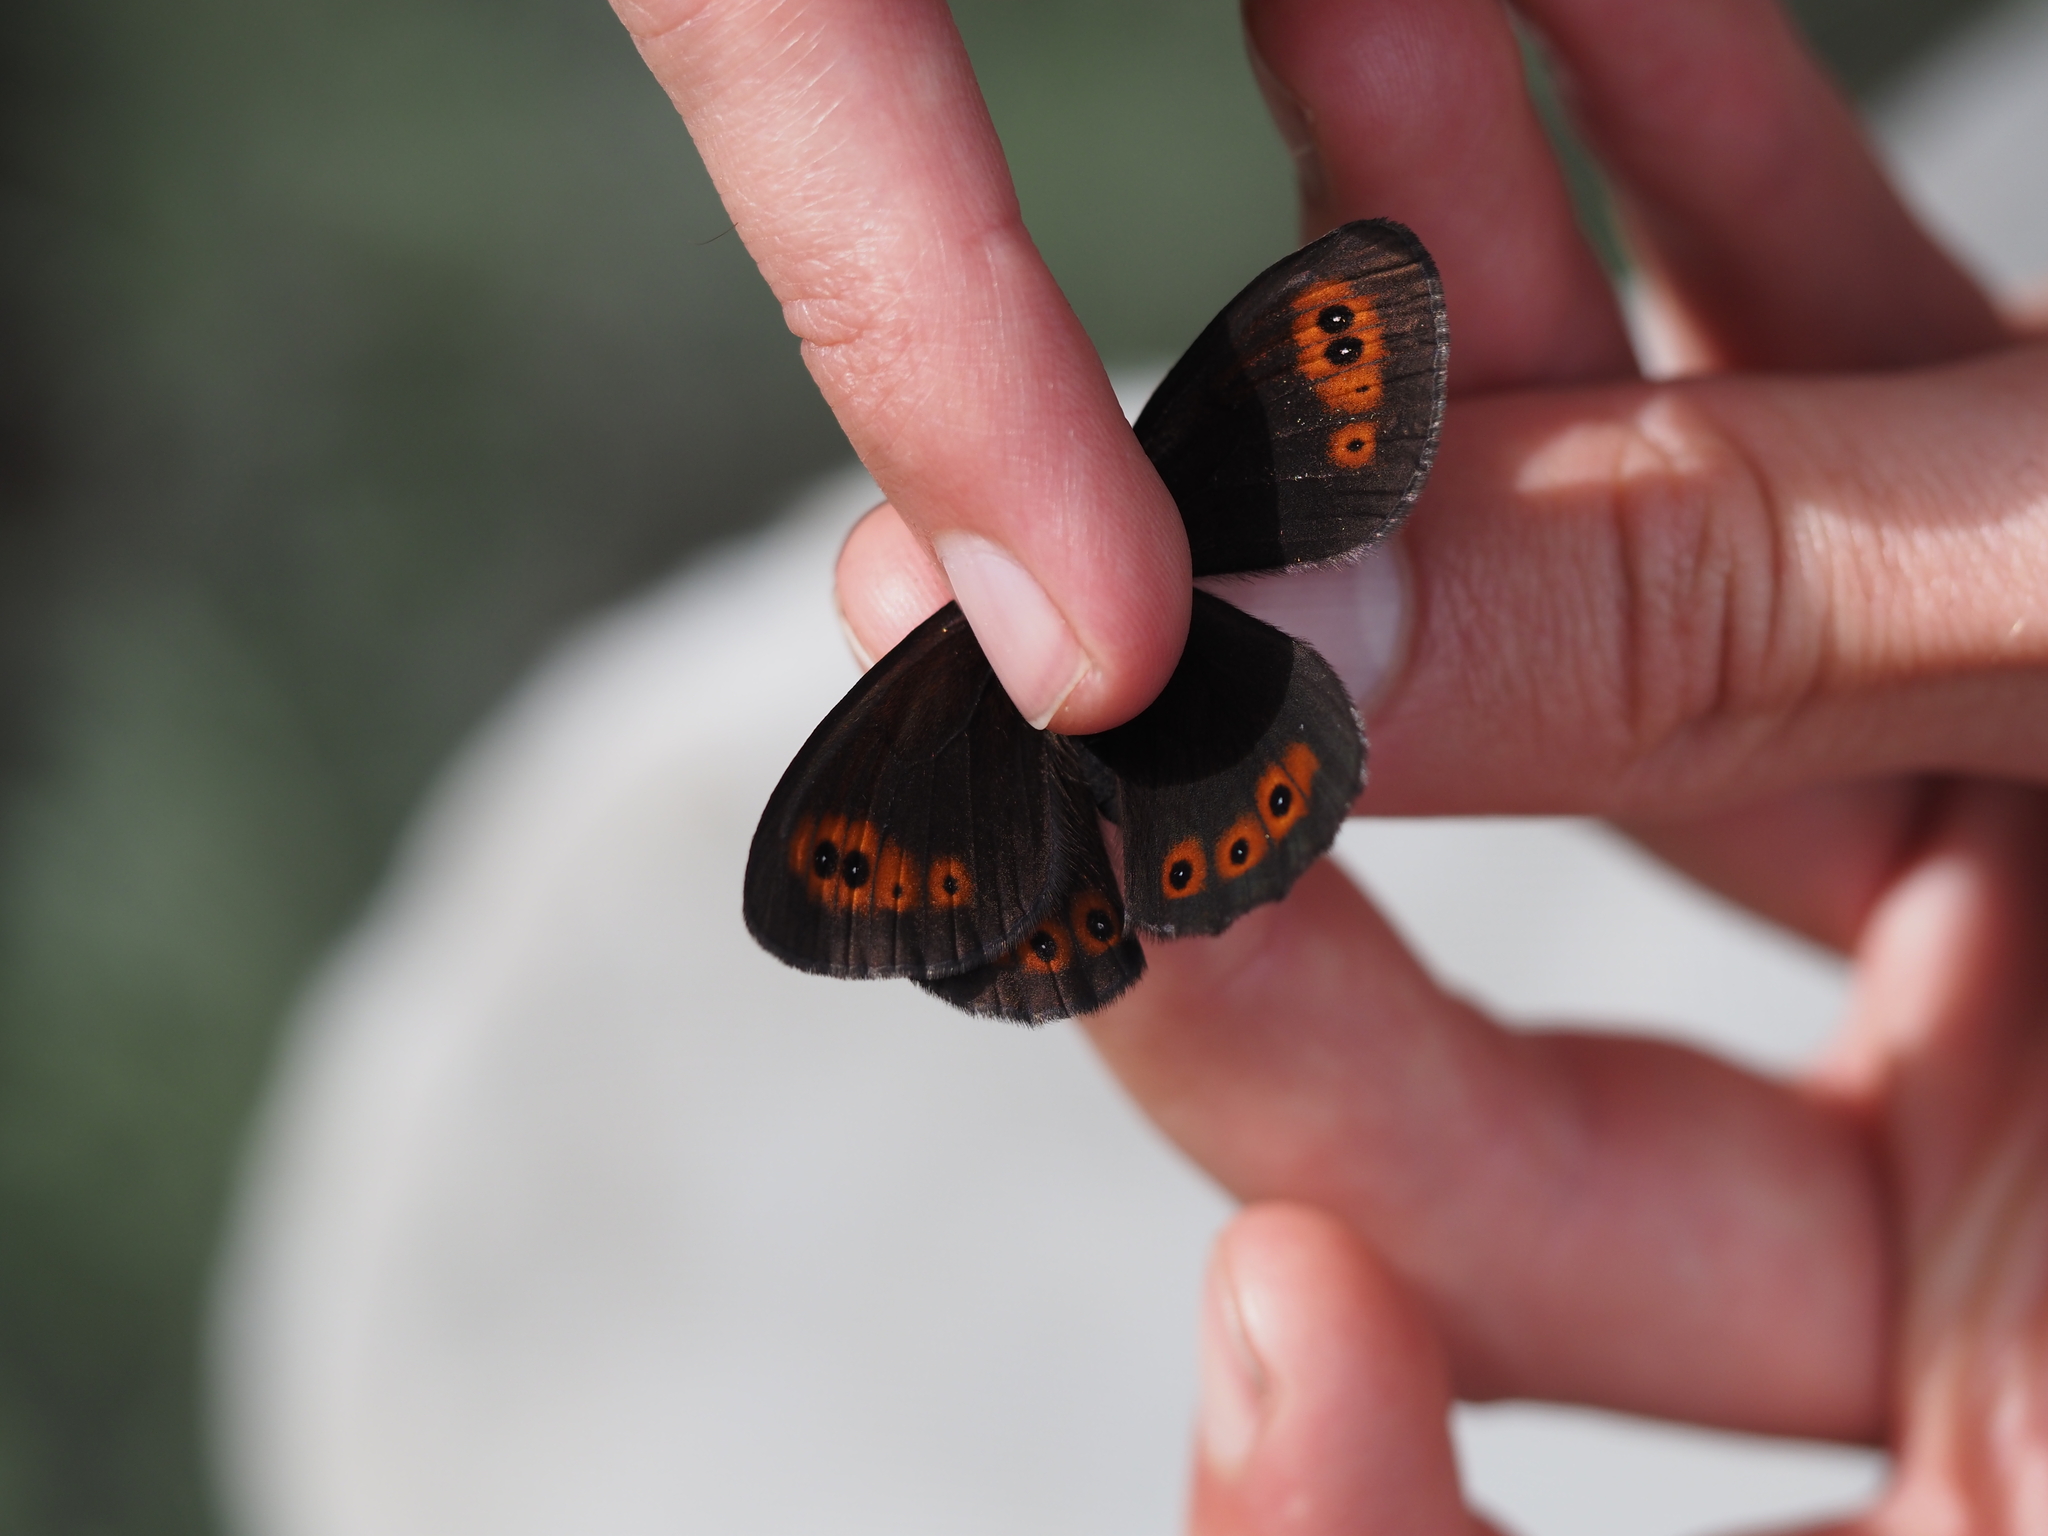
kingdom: Animalia
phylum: Arthropoda
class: Insecta
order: Lepidoptera
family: Nymphalidae
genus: Erebia
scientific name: Erebia epipsodea
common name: Common alpine
